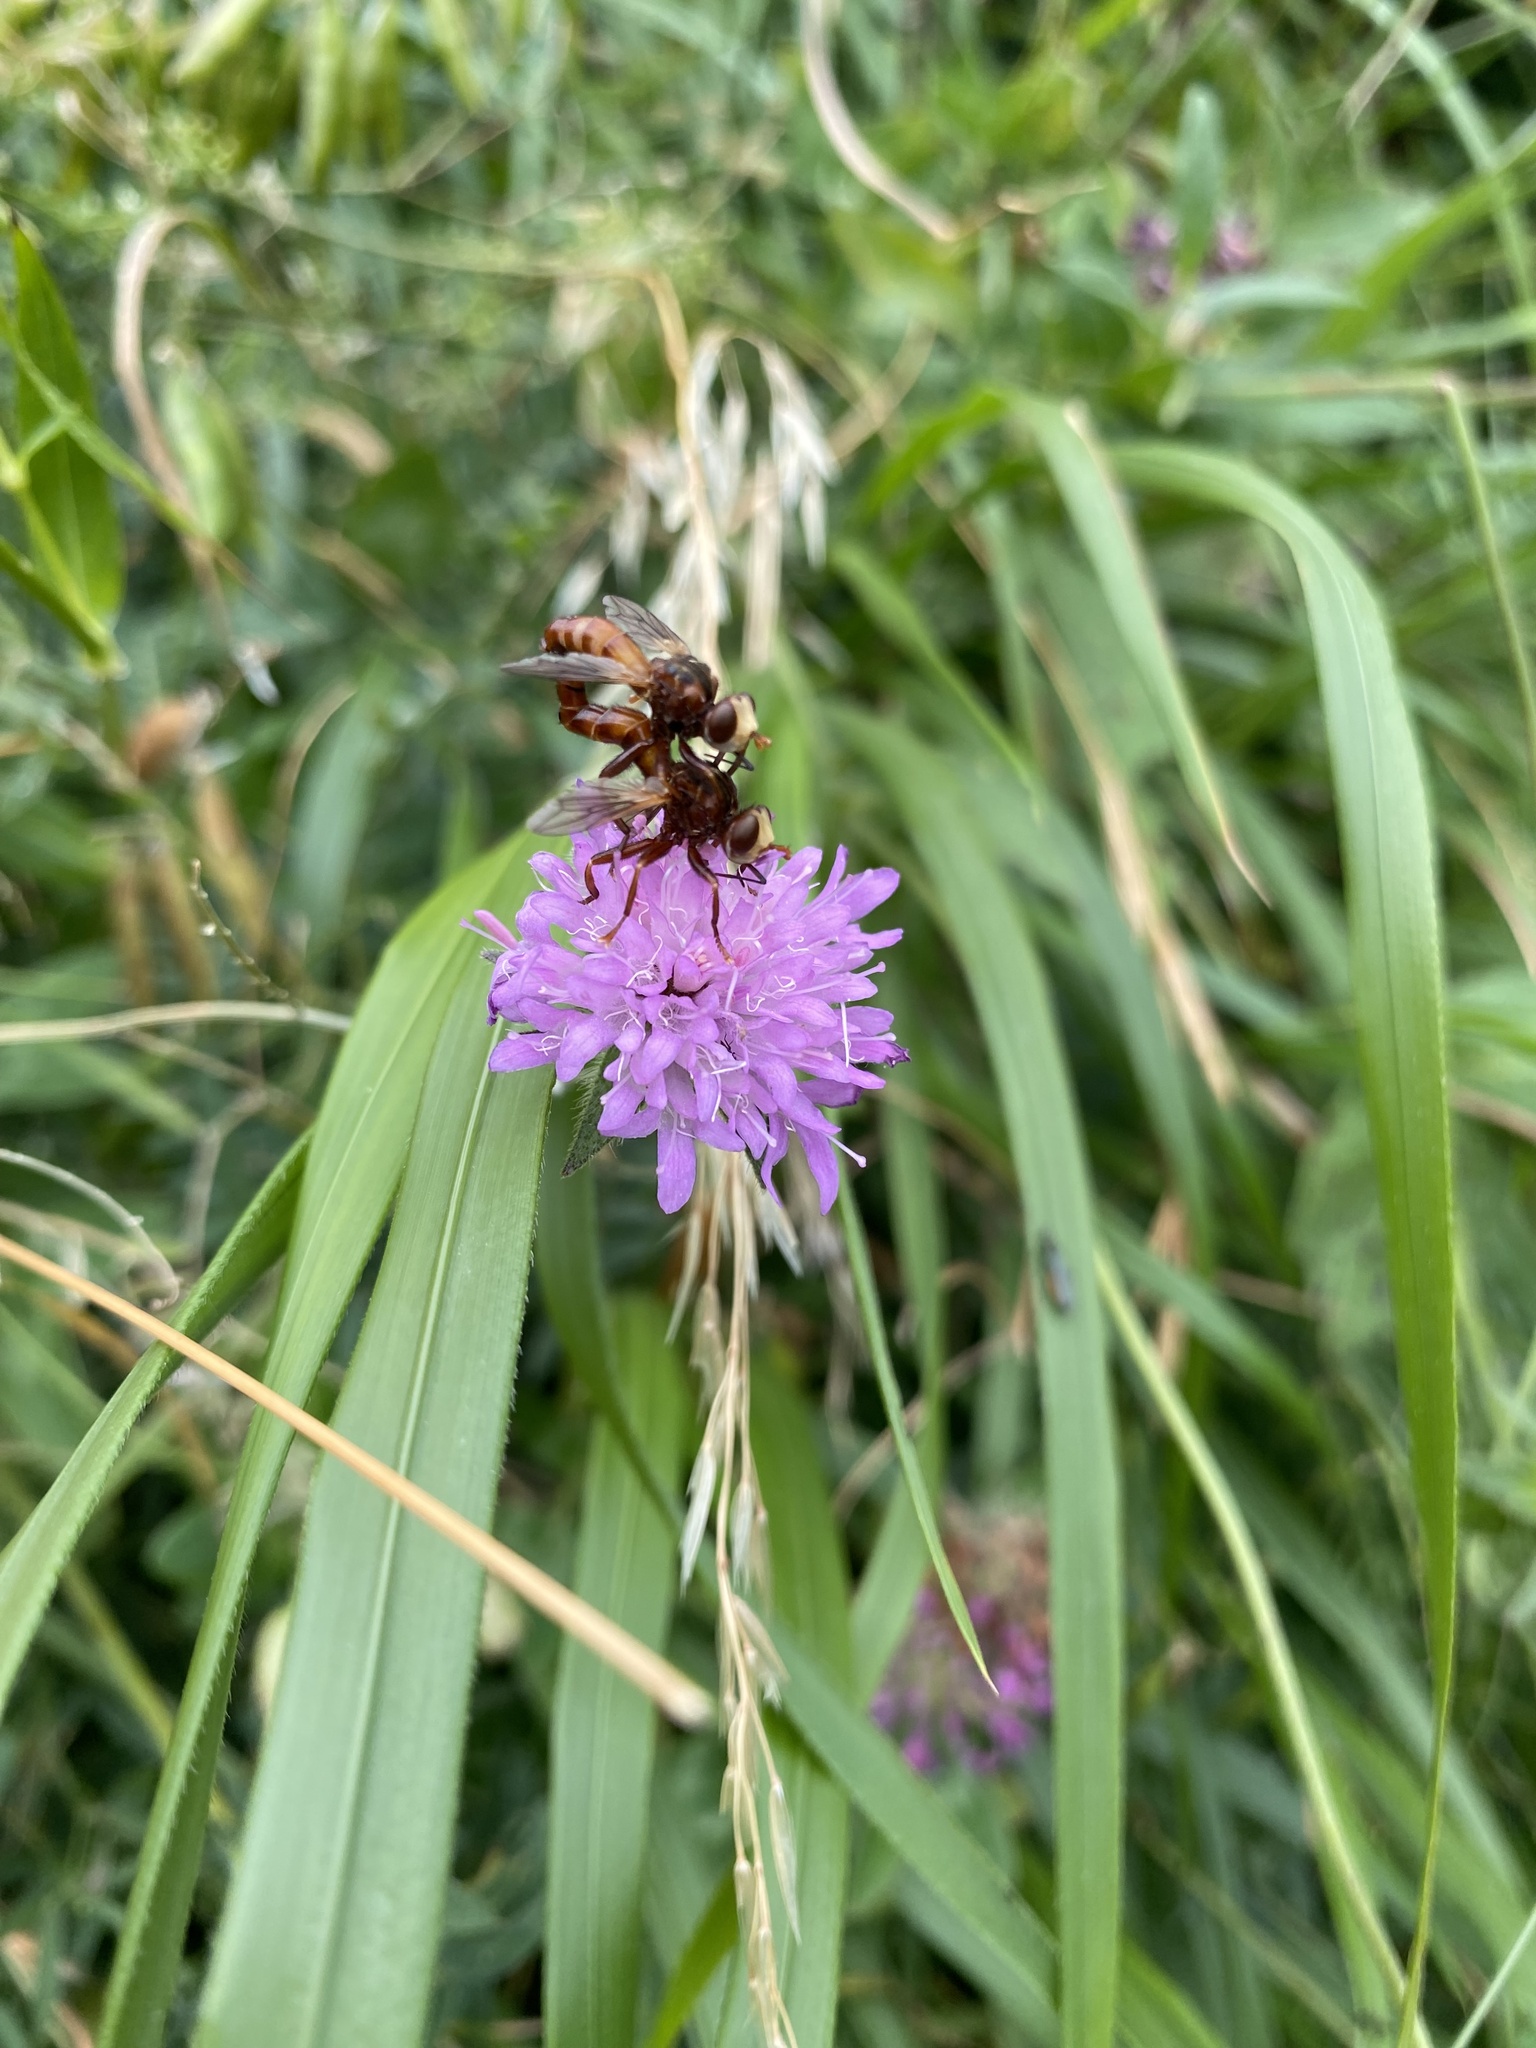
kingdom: Animalia
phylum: Arthropoda
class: Insecta
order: Diptera
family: Conopidae
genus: Sicus
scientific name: Sicus ferrugineus
